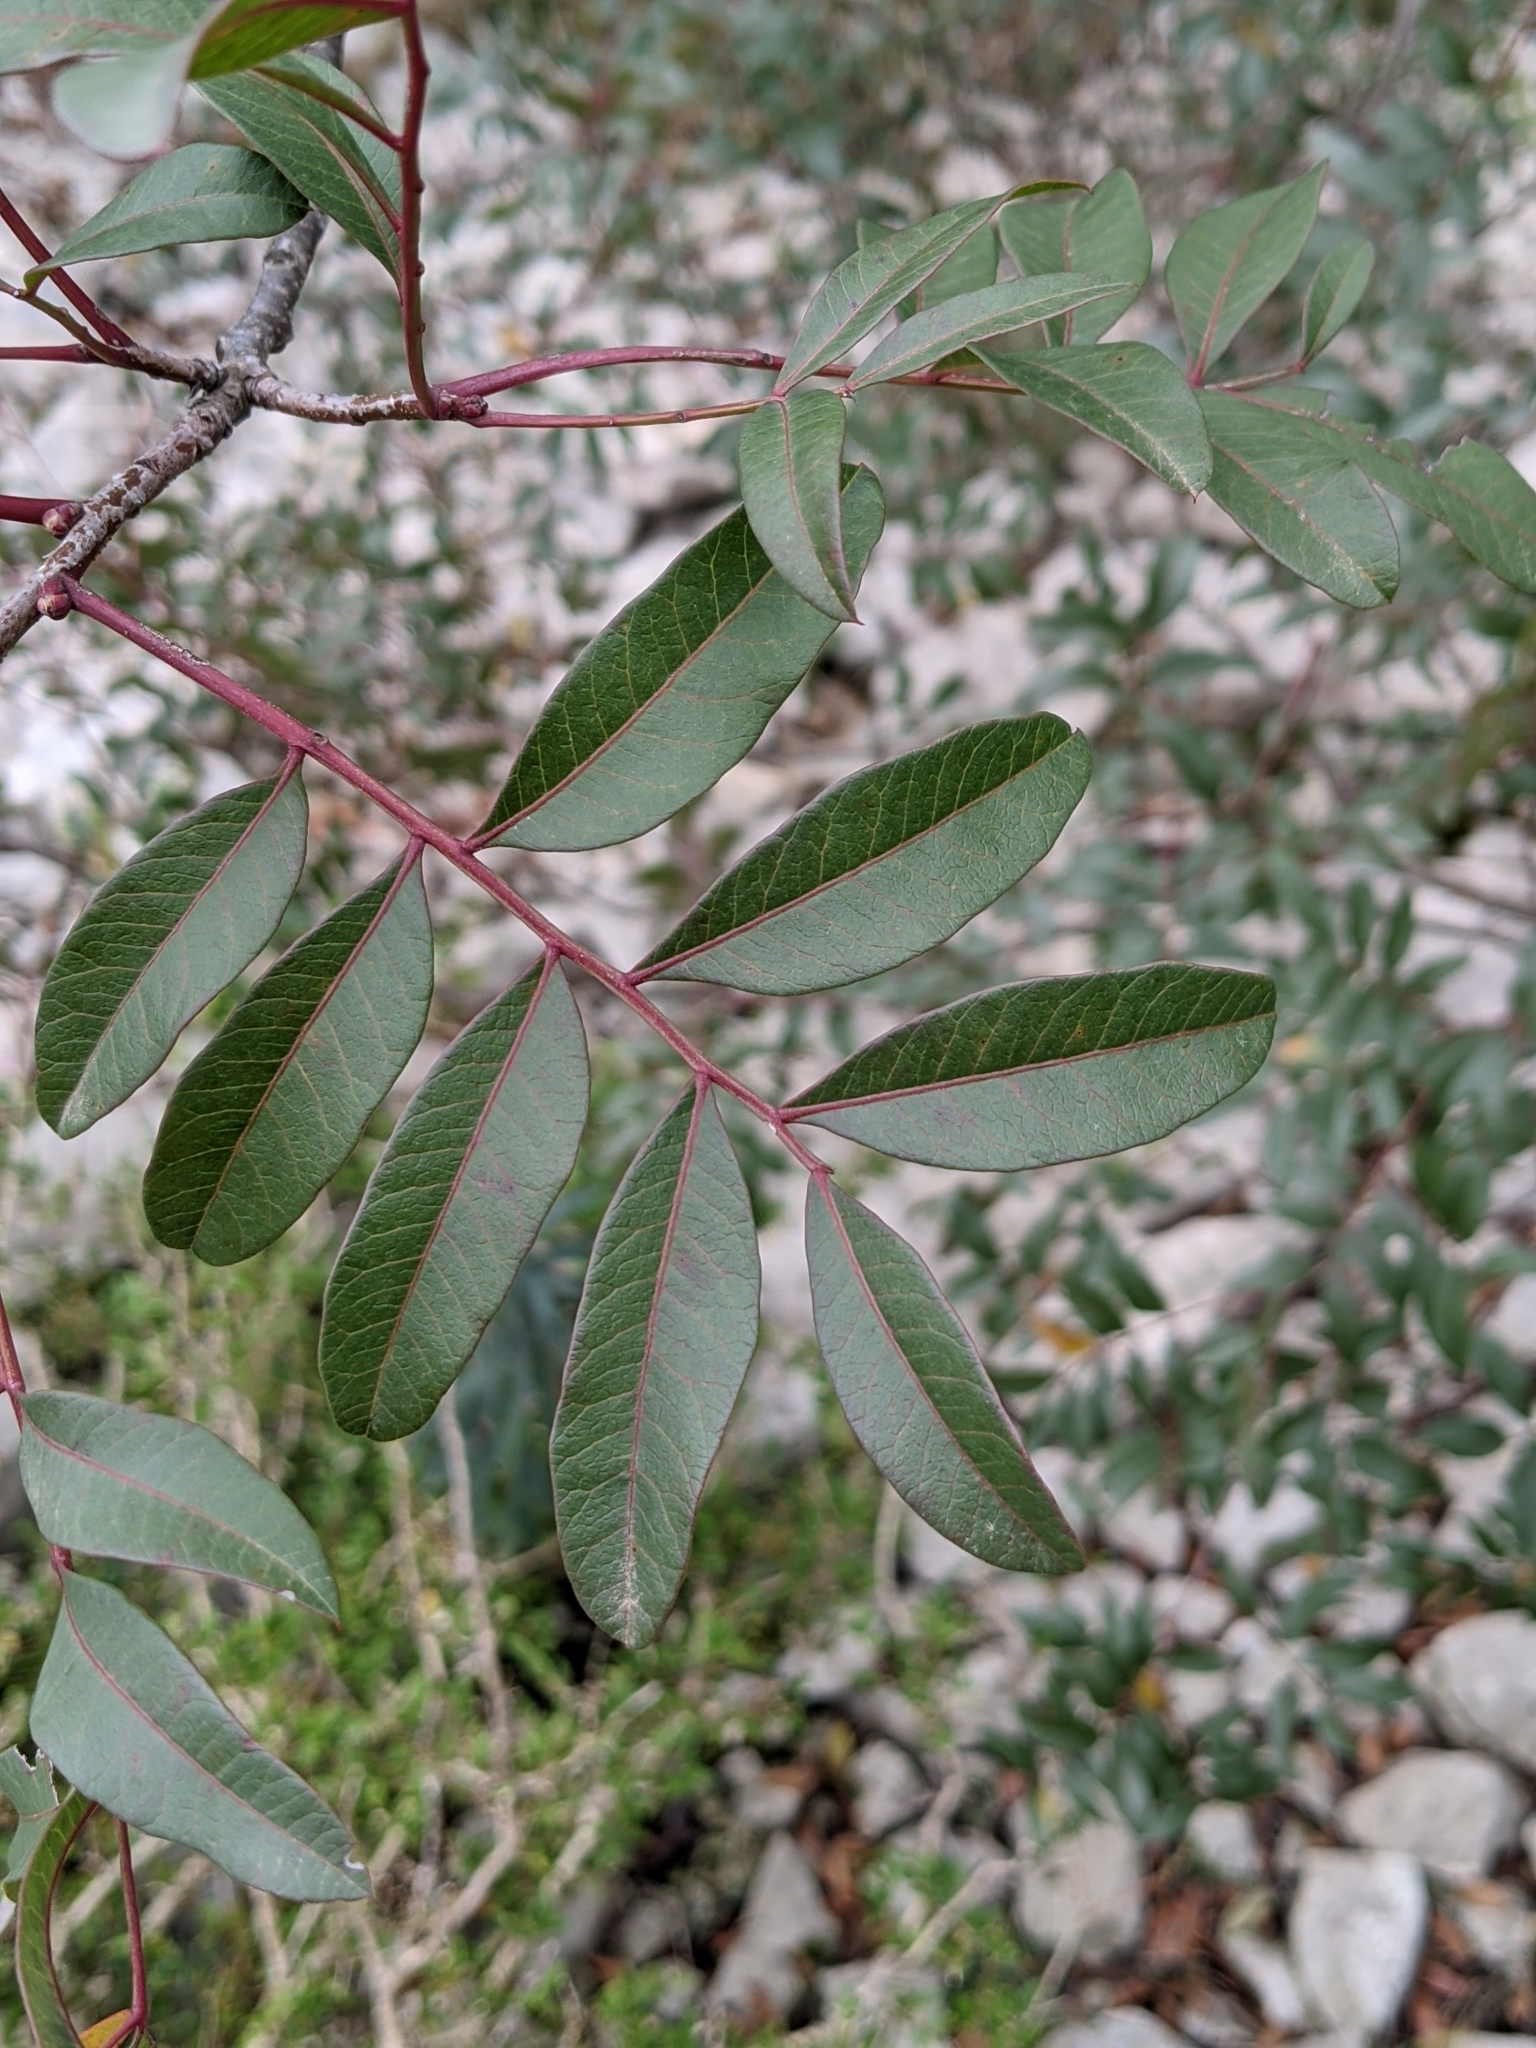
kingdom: Plantae
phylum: Tracheophyta
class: Magnoliopsida
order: Sapindales
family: Anacardiaceae
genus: Pistacia
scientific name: Pistacia saportae
